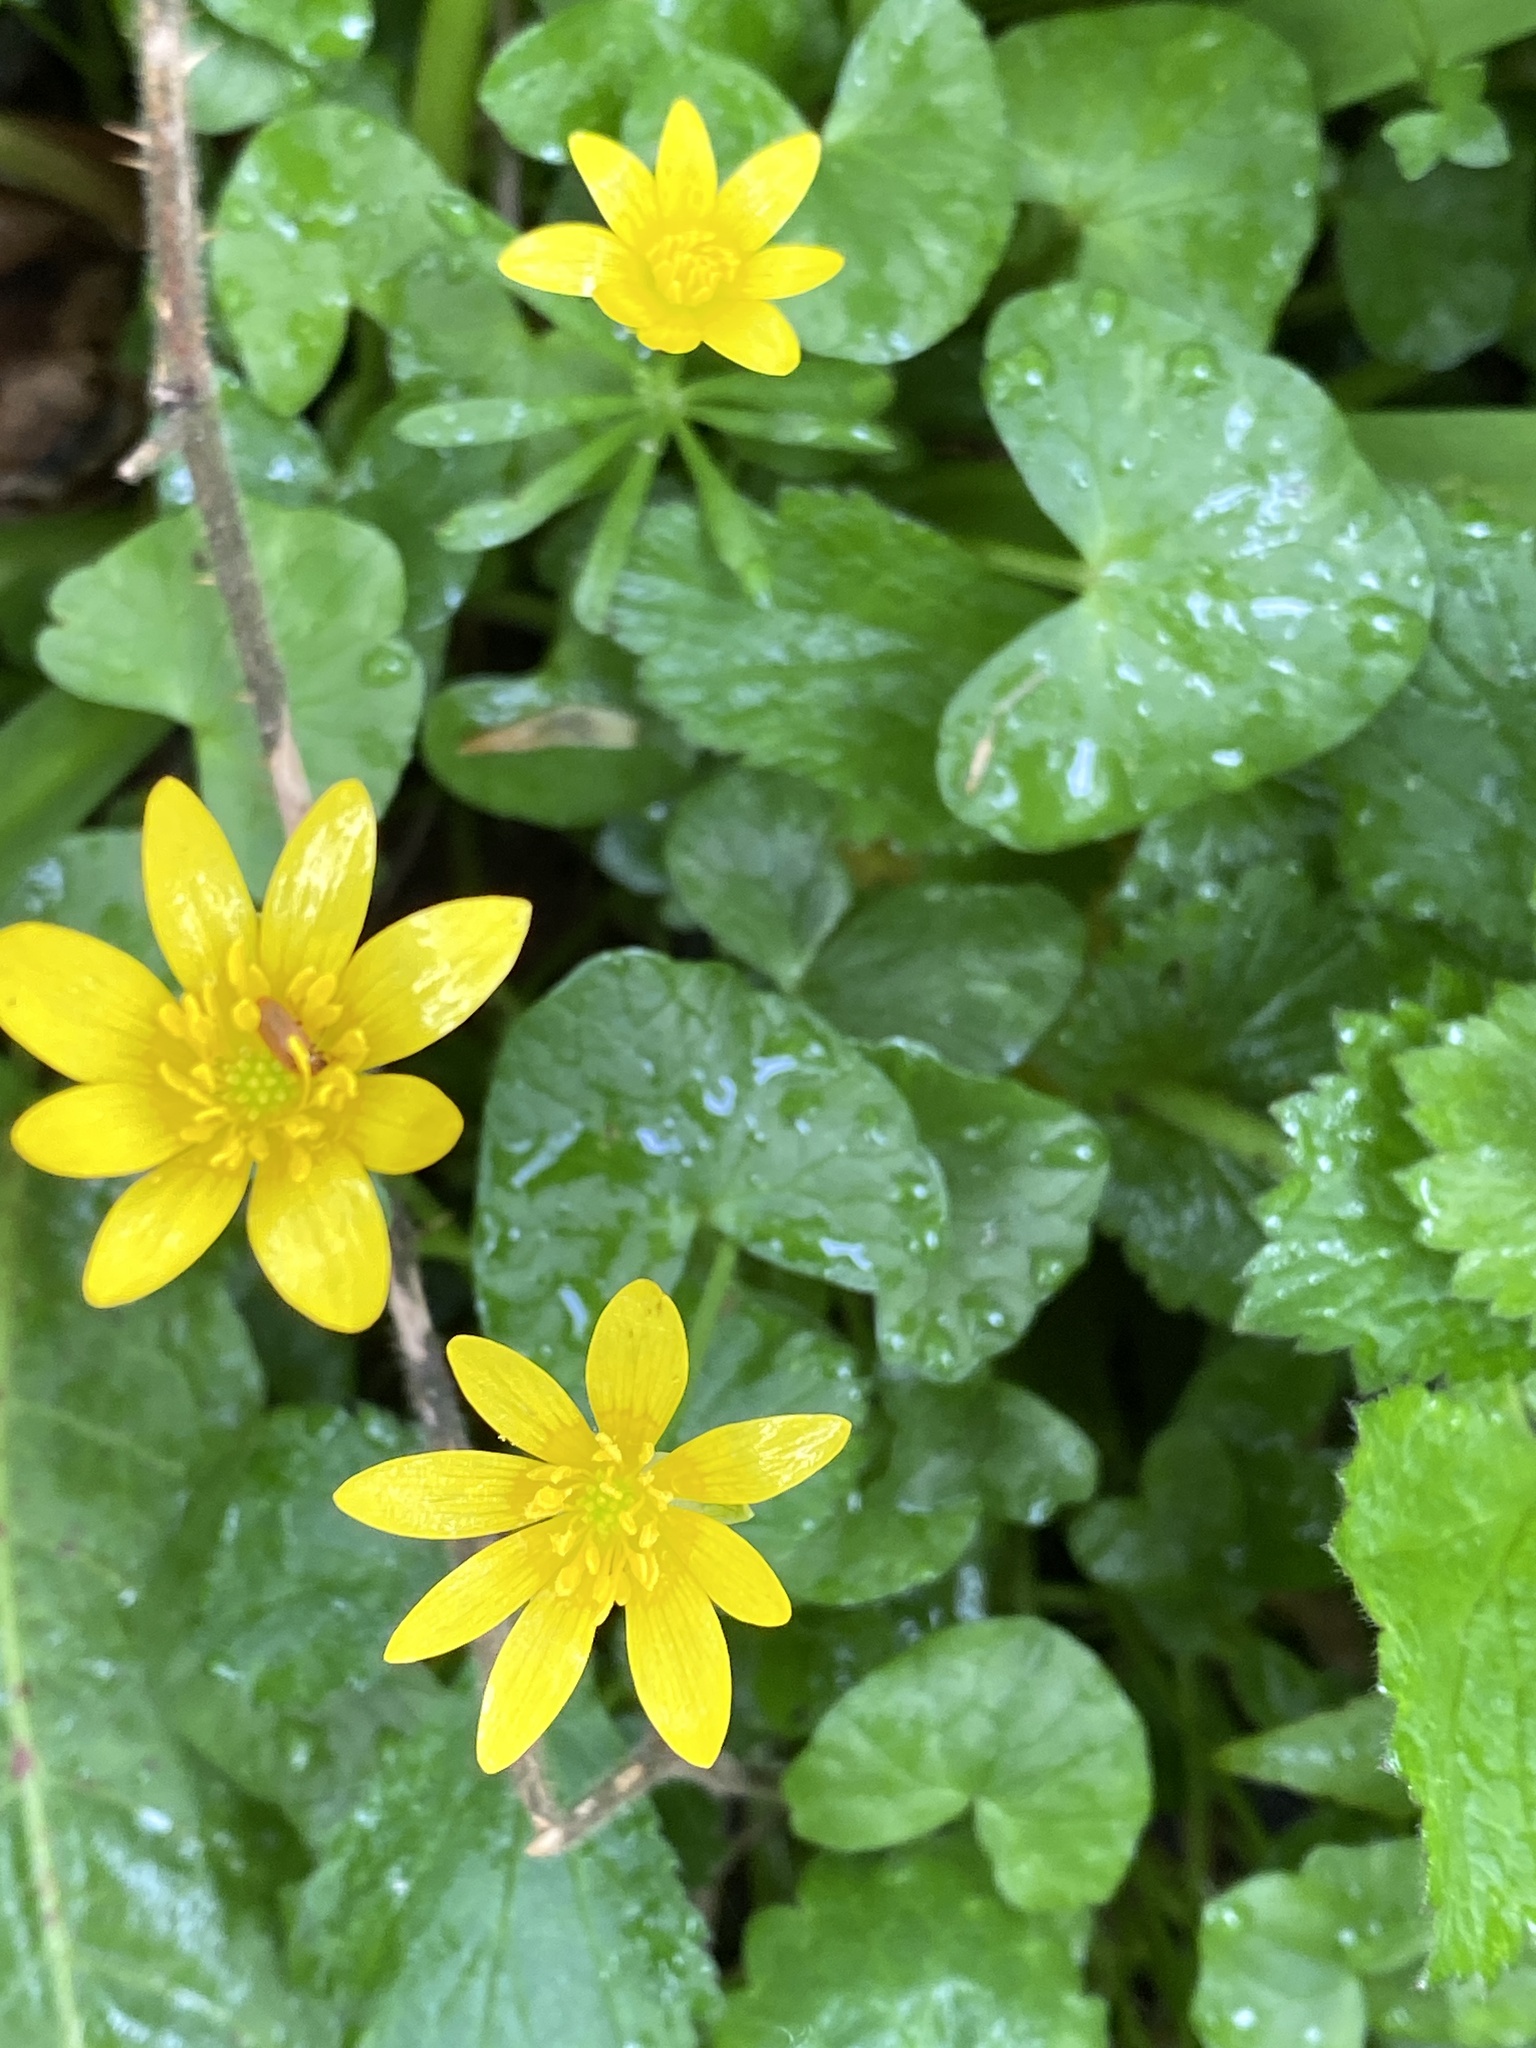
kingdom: Plantae
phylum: Tracheophyta
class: Magnoliopsida
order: Ranunculales
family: Ranunculaceae
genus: Ficaria
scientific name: Ficaria verna
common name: Lesser celandine
